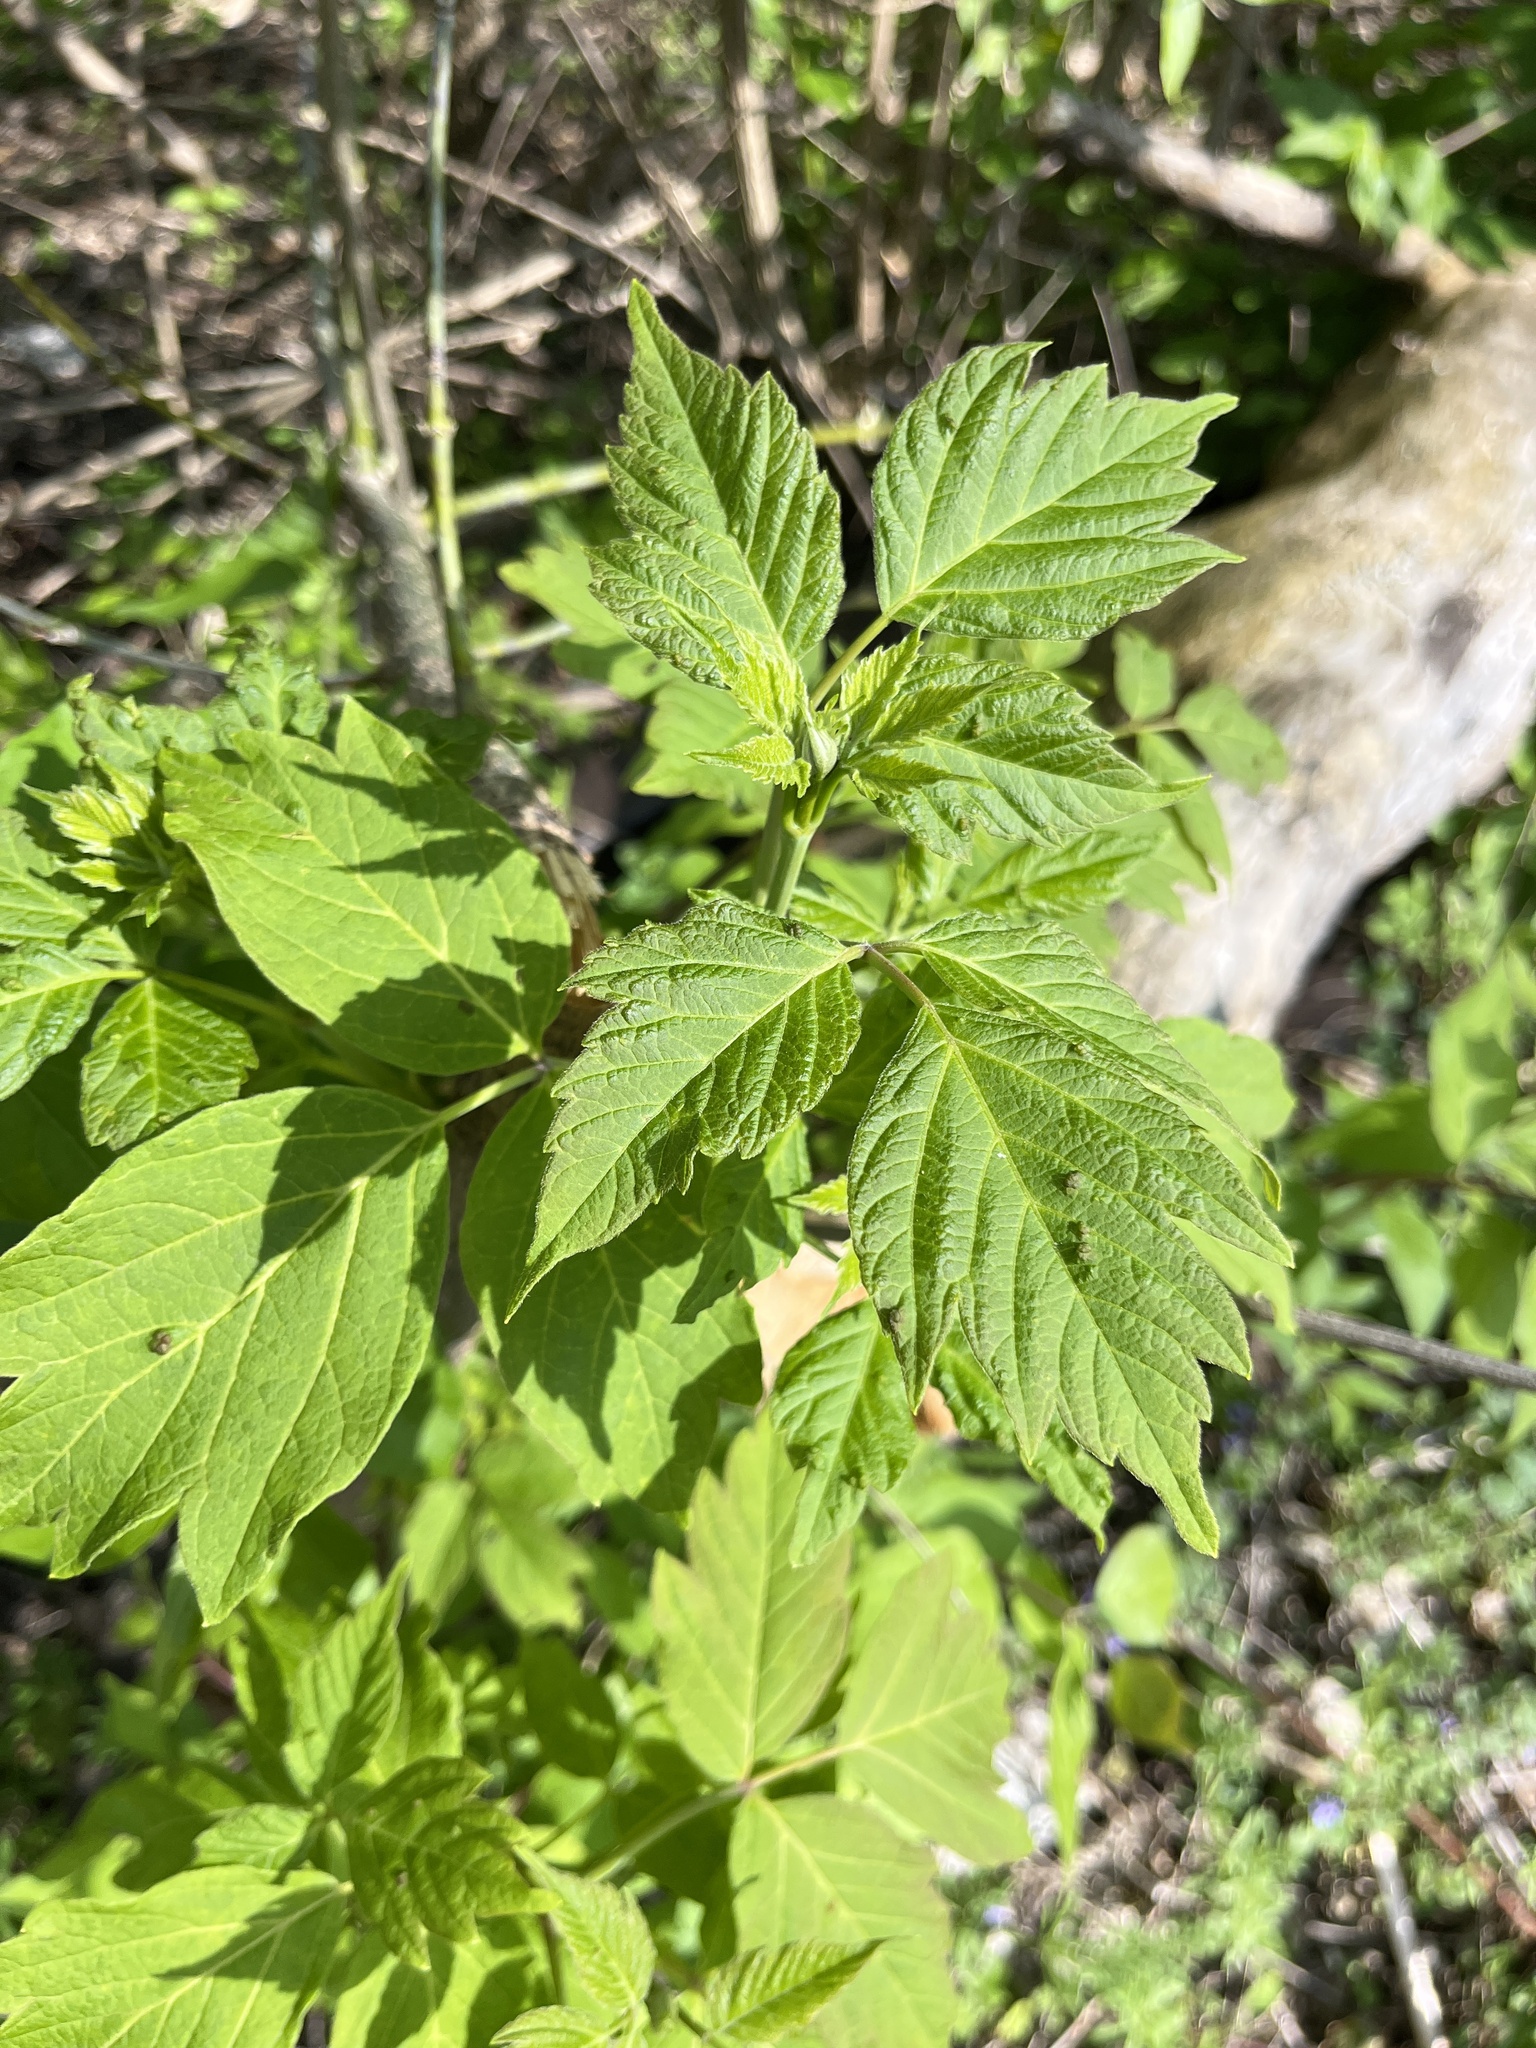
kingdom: Plantae
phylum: Tracheophyta
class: Magnoliopsida
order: Sapindales
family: Sapindaceae
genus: Acer
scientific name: Acer negundo
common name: Ashleaf maple
